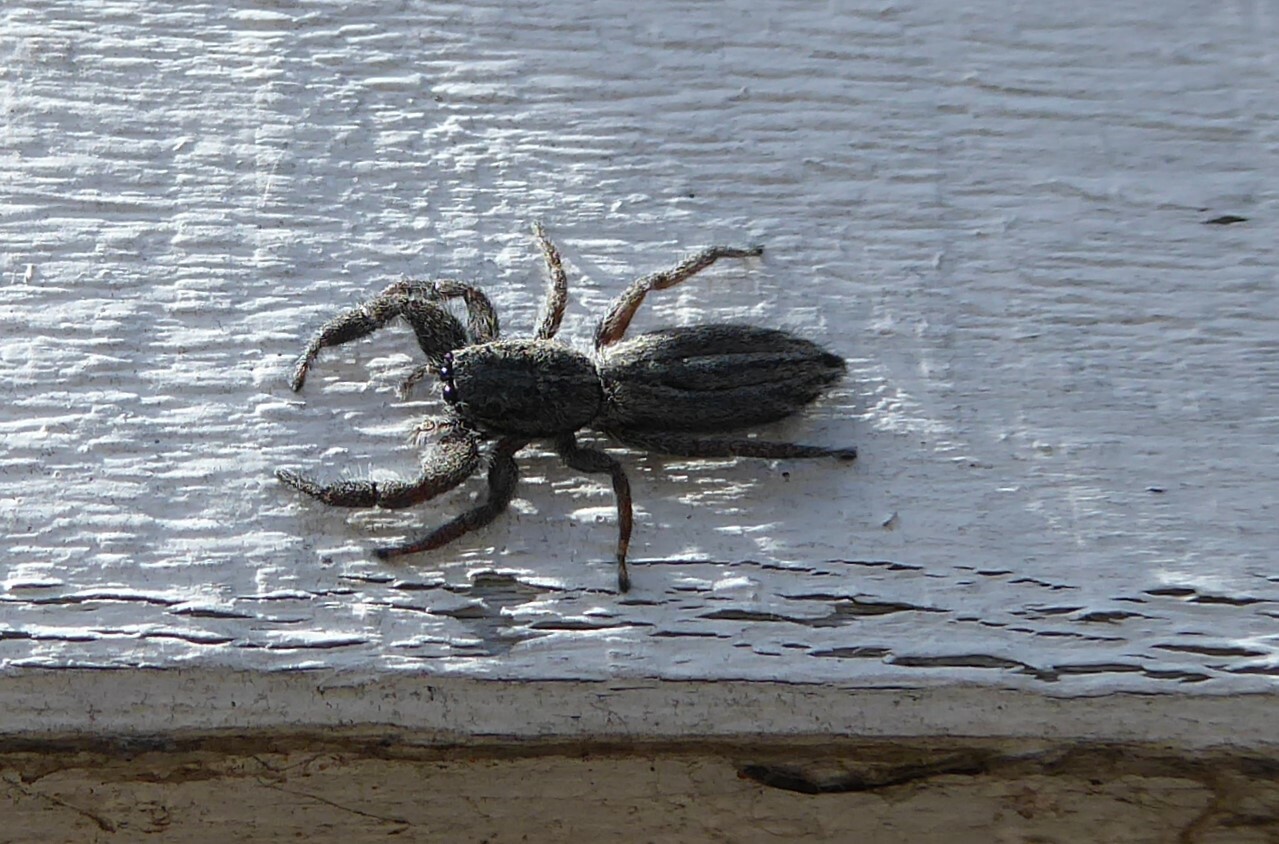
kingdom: Animalia
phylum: Arthropoda
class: Arachnida
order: Araneae
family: Salticidae
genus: Holoplatys
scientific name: Holoplatys apressus
